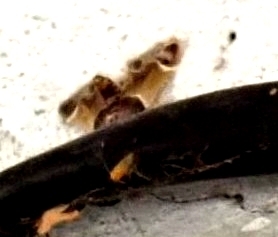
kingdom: Animalia
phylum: Arthropoda
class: Insecta
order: Lepidoptera
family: Pyralidae
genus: Pyralis
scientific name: Pyralis farinalis
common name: Meal moth
